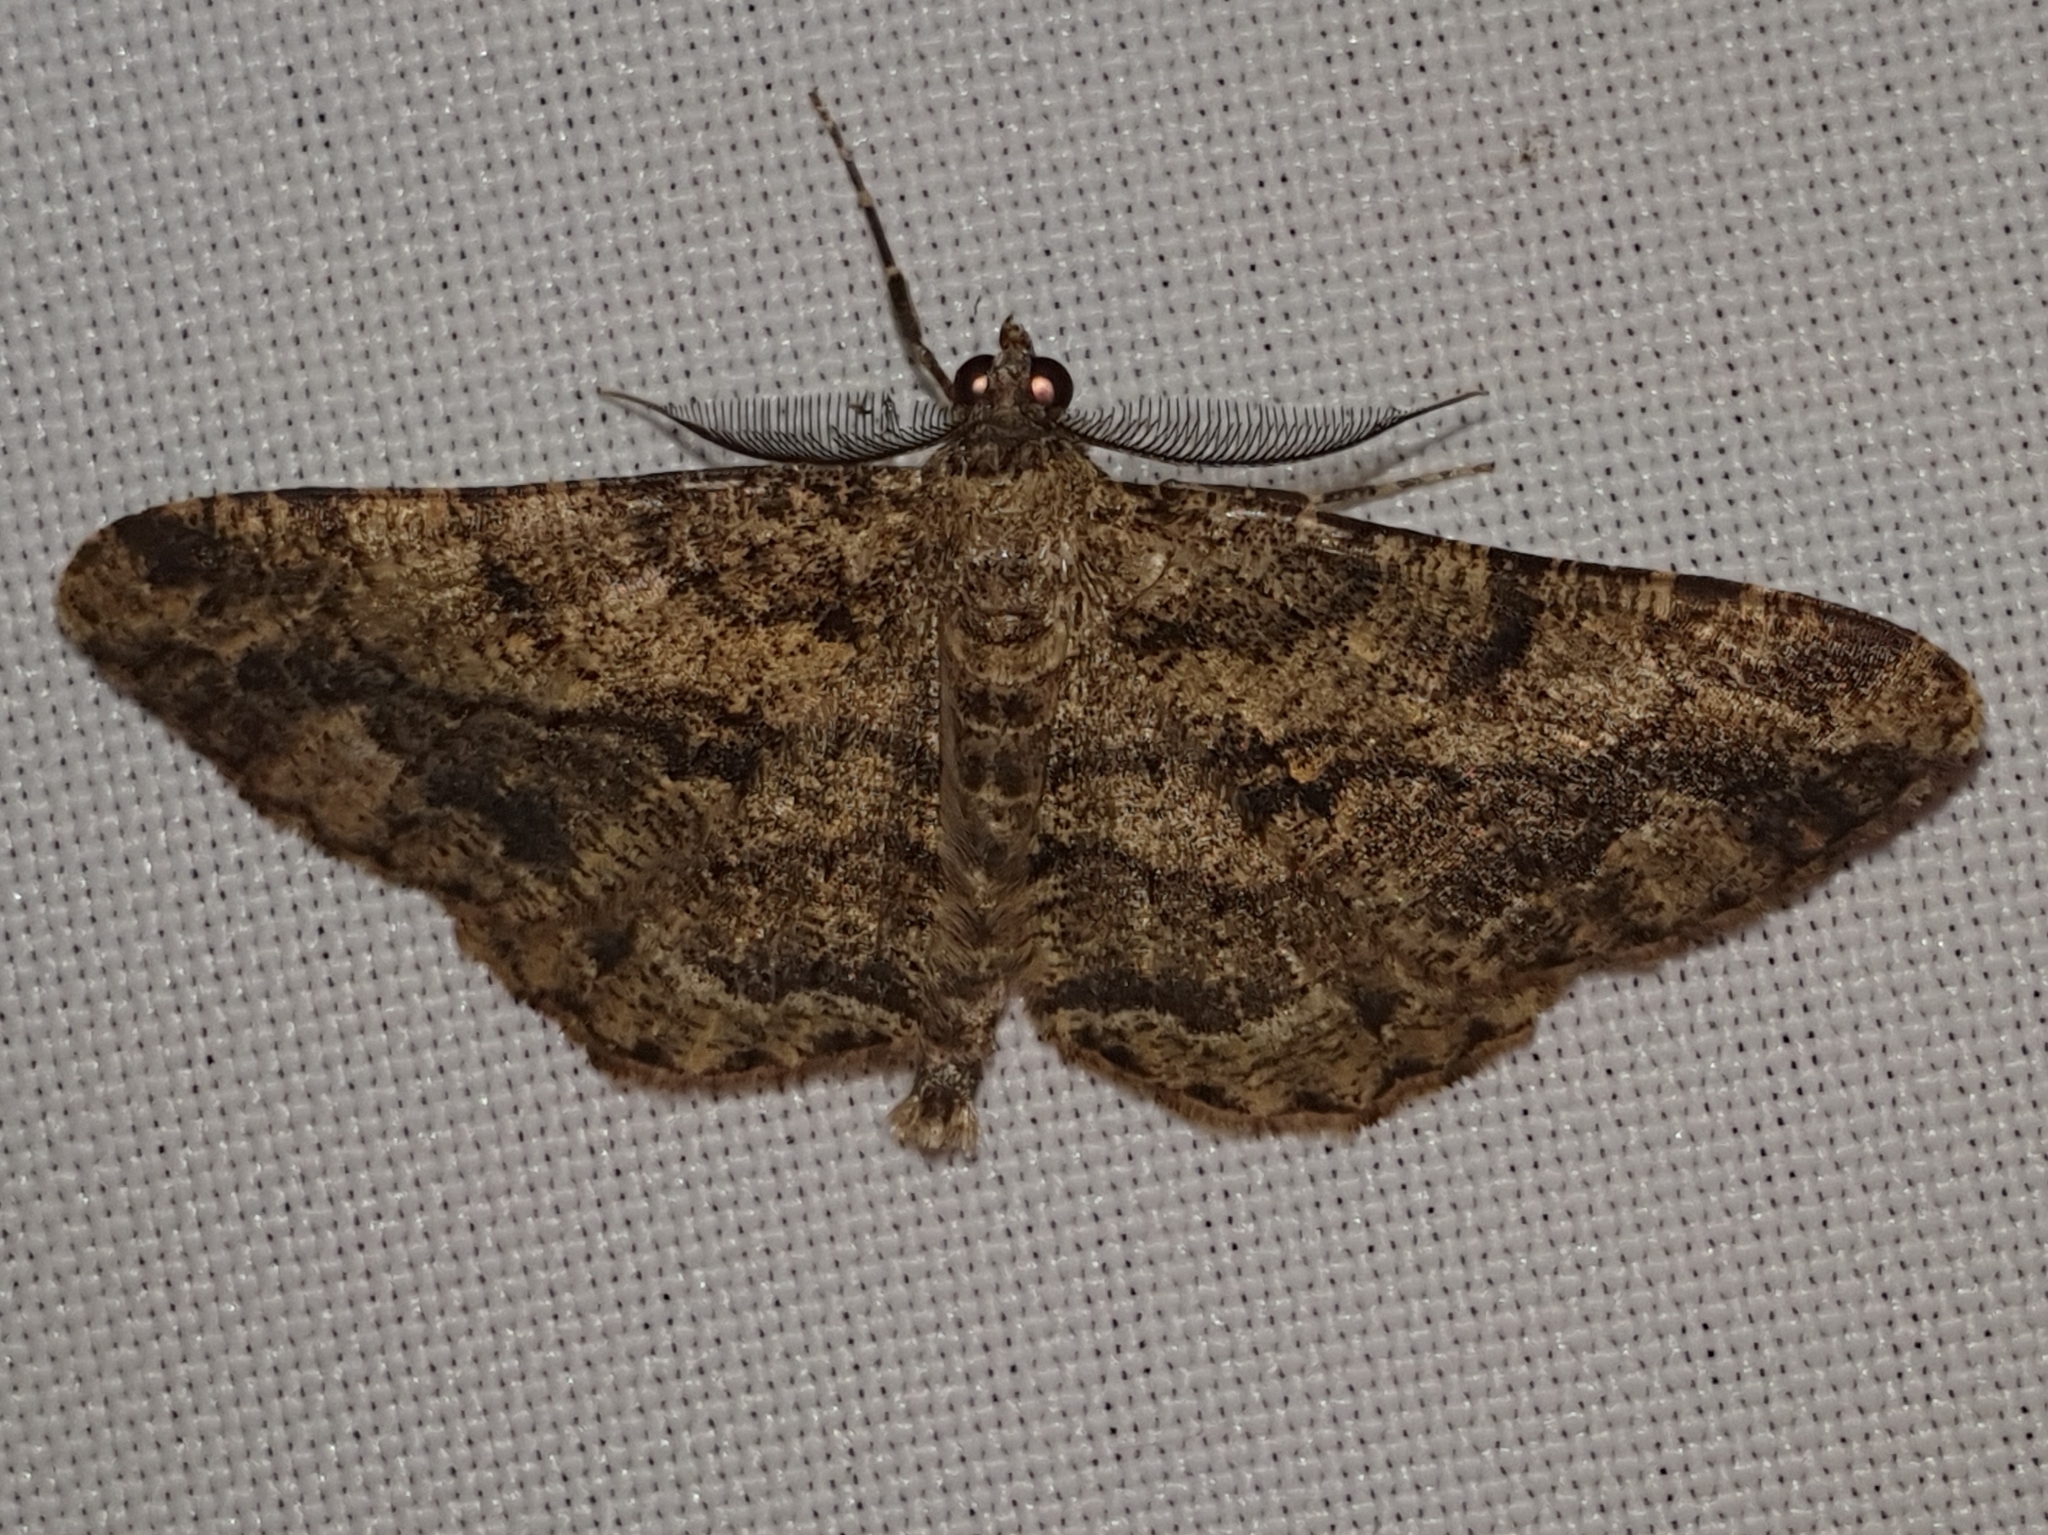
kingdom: Animalia
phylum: Arthropoda
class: Insecta
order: Lepidoptera
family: Geometridae
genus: Peribatodes
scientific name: Peribatodes rhomboidaria
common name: Willow beauty
